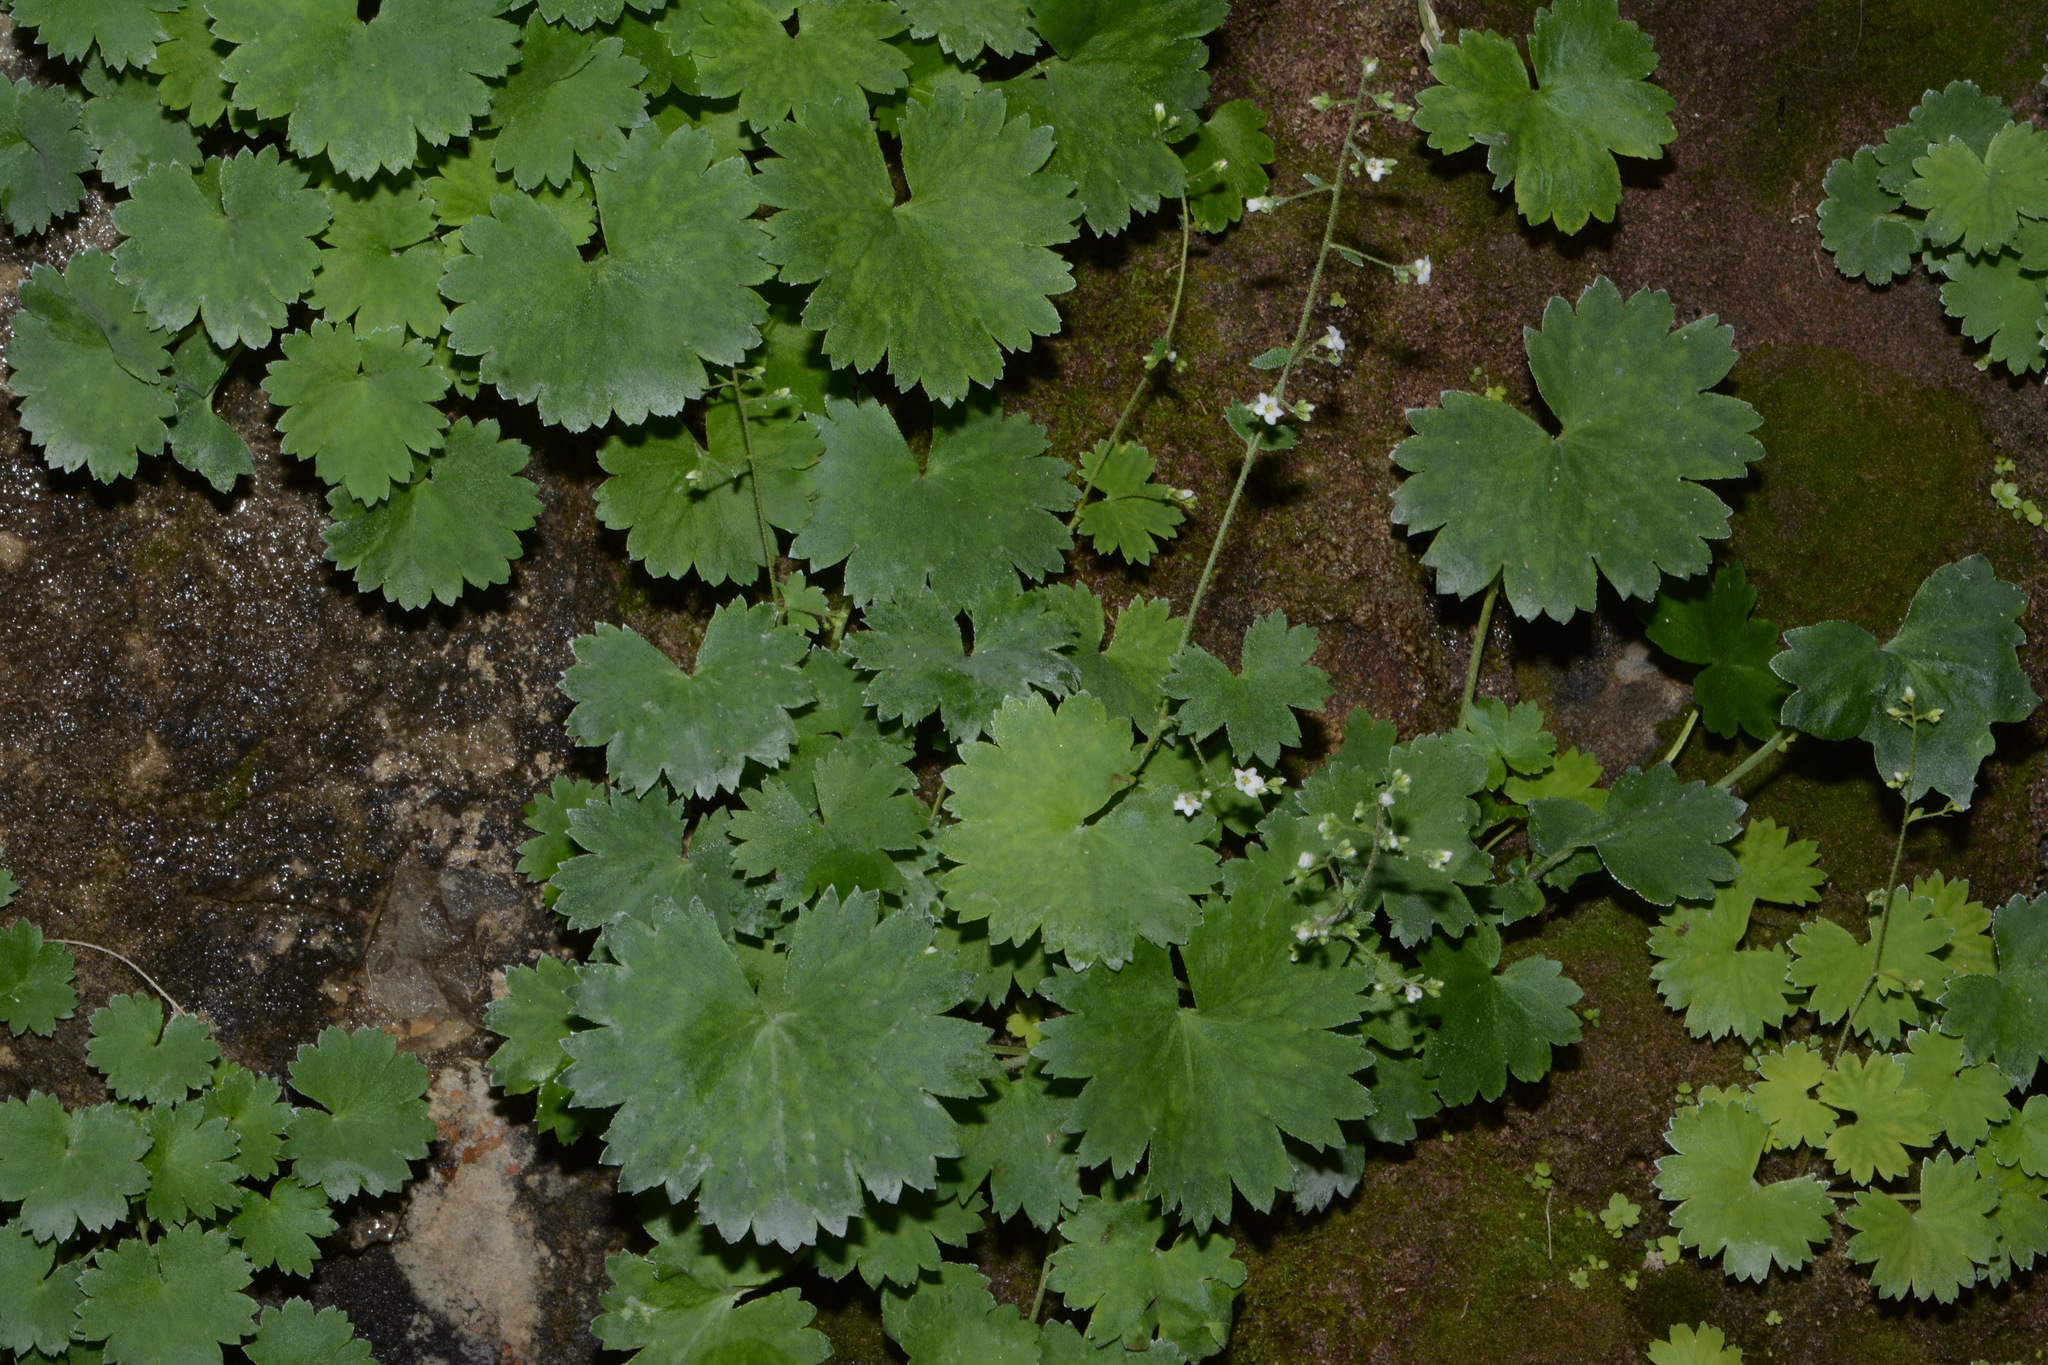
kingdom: Plantae
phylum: Tracheophyta
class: Magnoliopsida
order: Saxifragales
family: Saxifragaceae
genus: Sullivantia
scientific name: Sullivantia hapemanii
